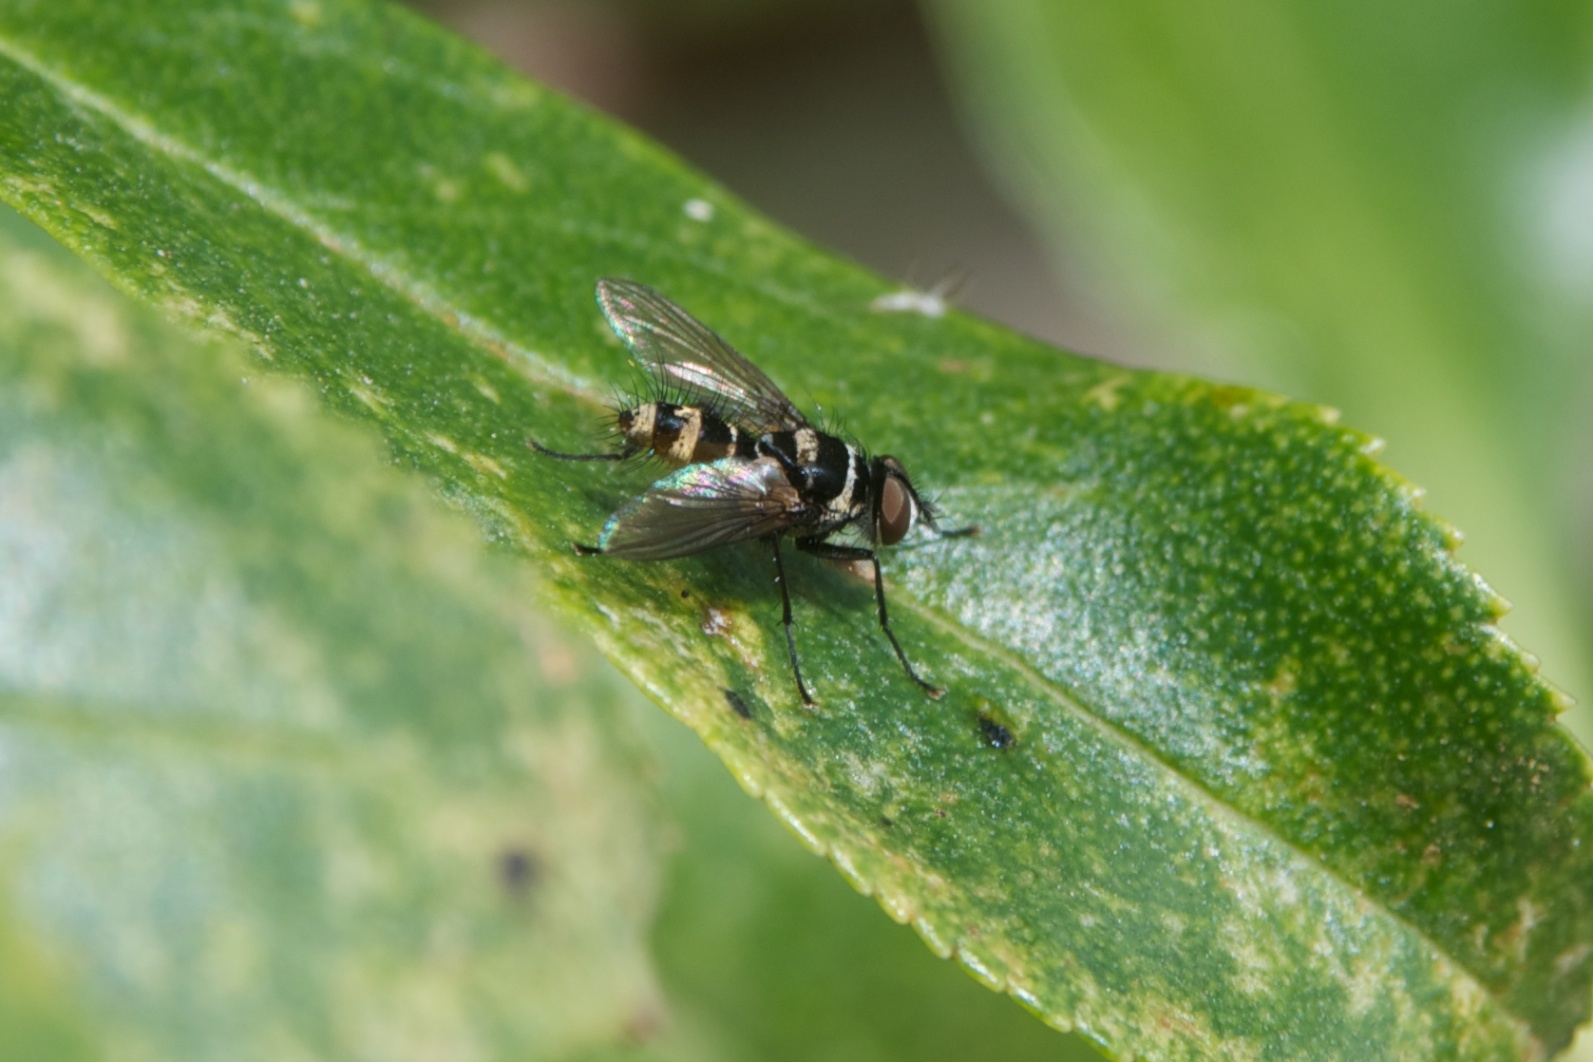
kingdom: Animalia
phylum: Arthropoda
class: Insecta
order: Diptera
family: Tachinidae
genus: Trigonospila
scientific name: Trigonospila brevifacies
